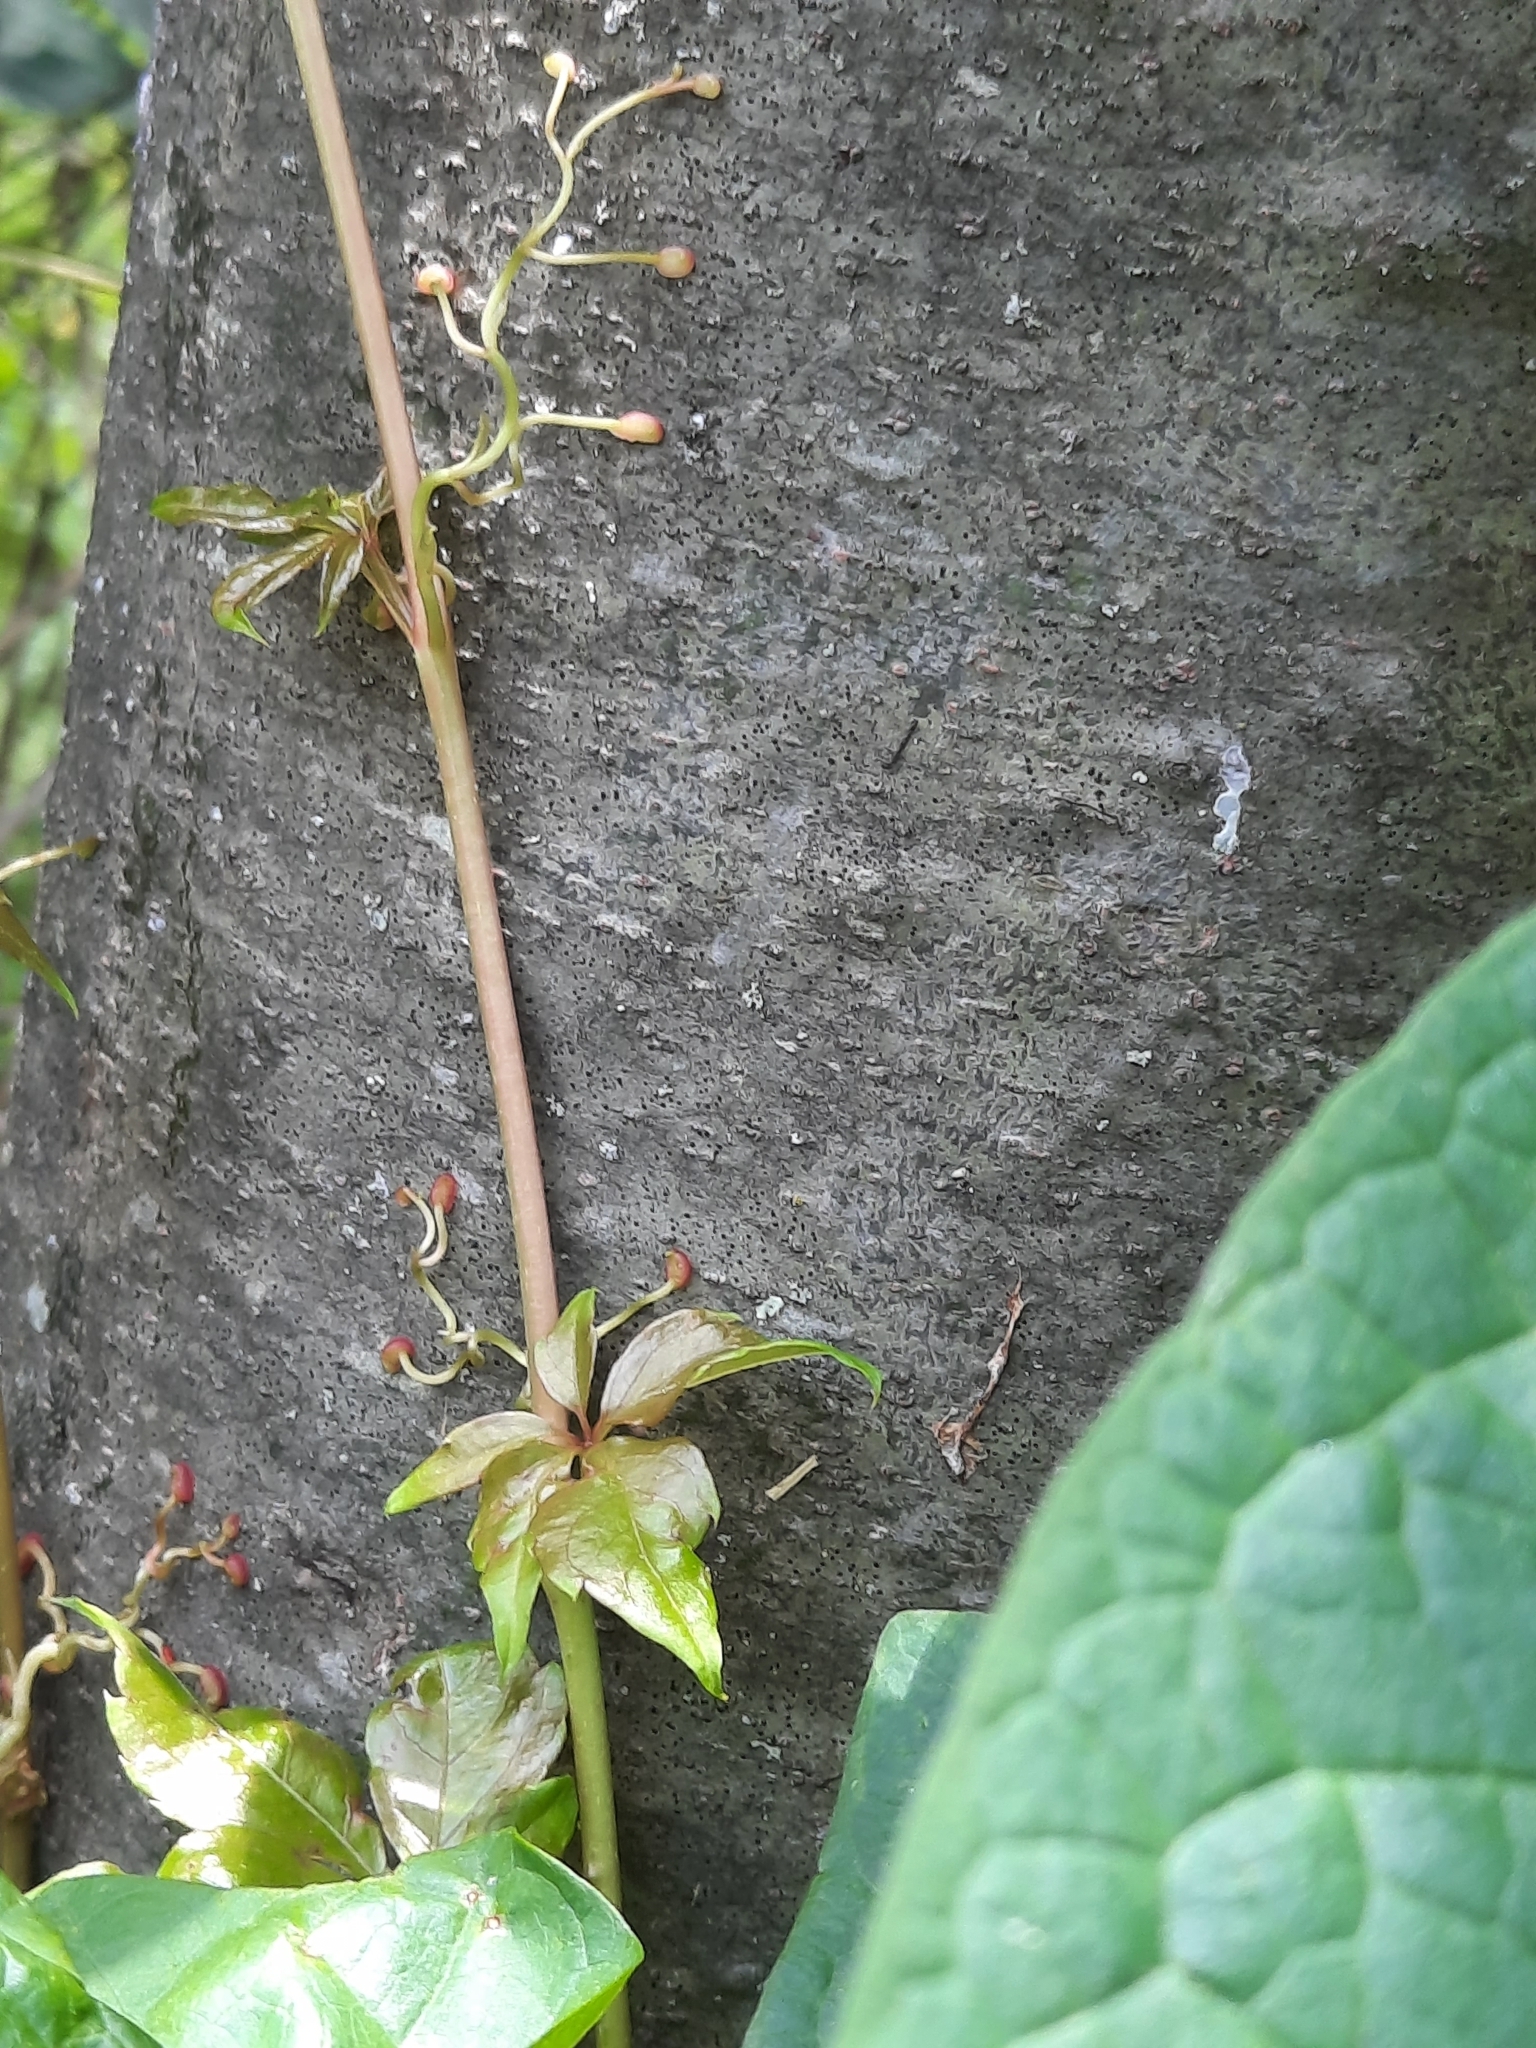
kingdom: Plantae
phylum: Tracheophyta
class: Magnoliopsida
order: Vitales
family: Vitaceae
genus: Parthenocissus
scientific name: Parthenocissus quinquefolia
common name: Virginia-creeper
